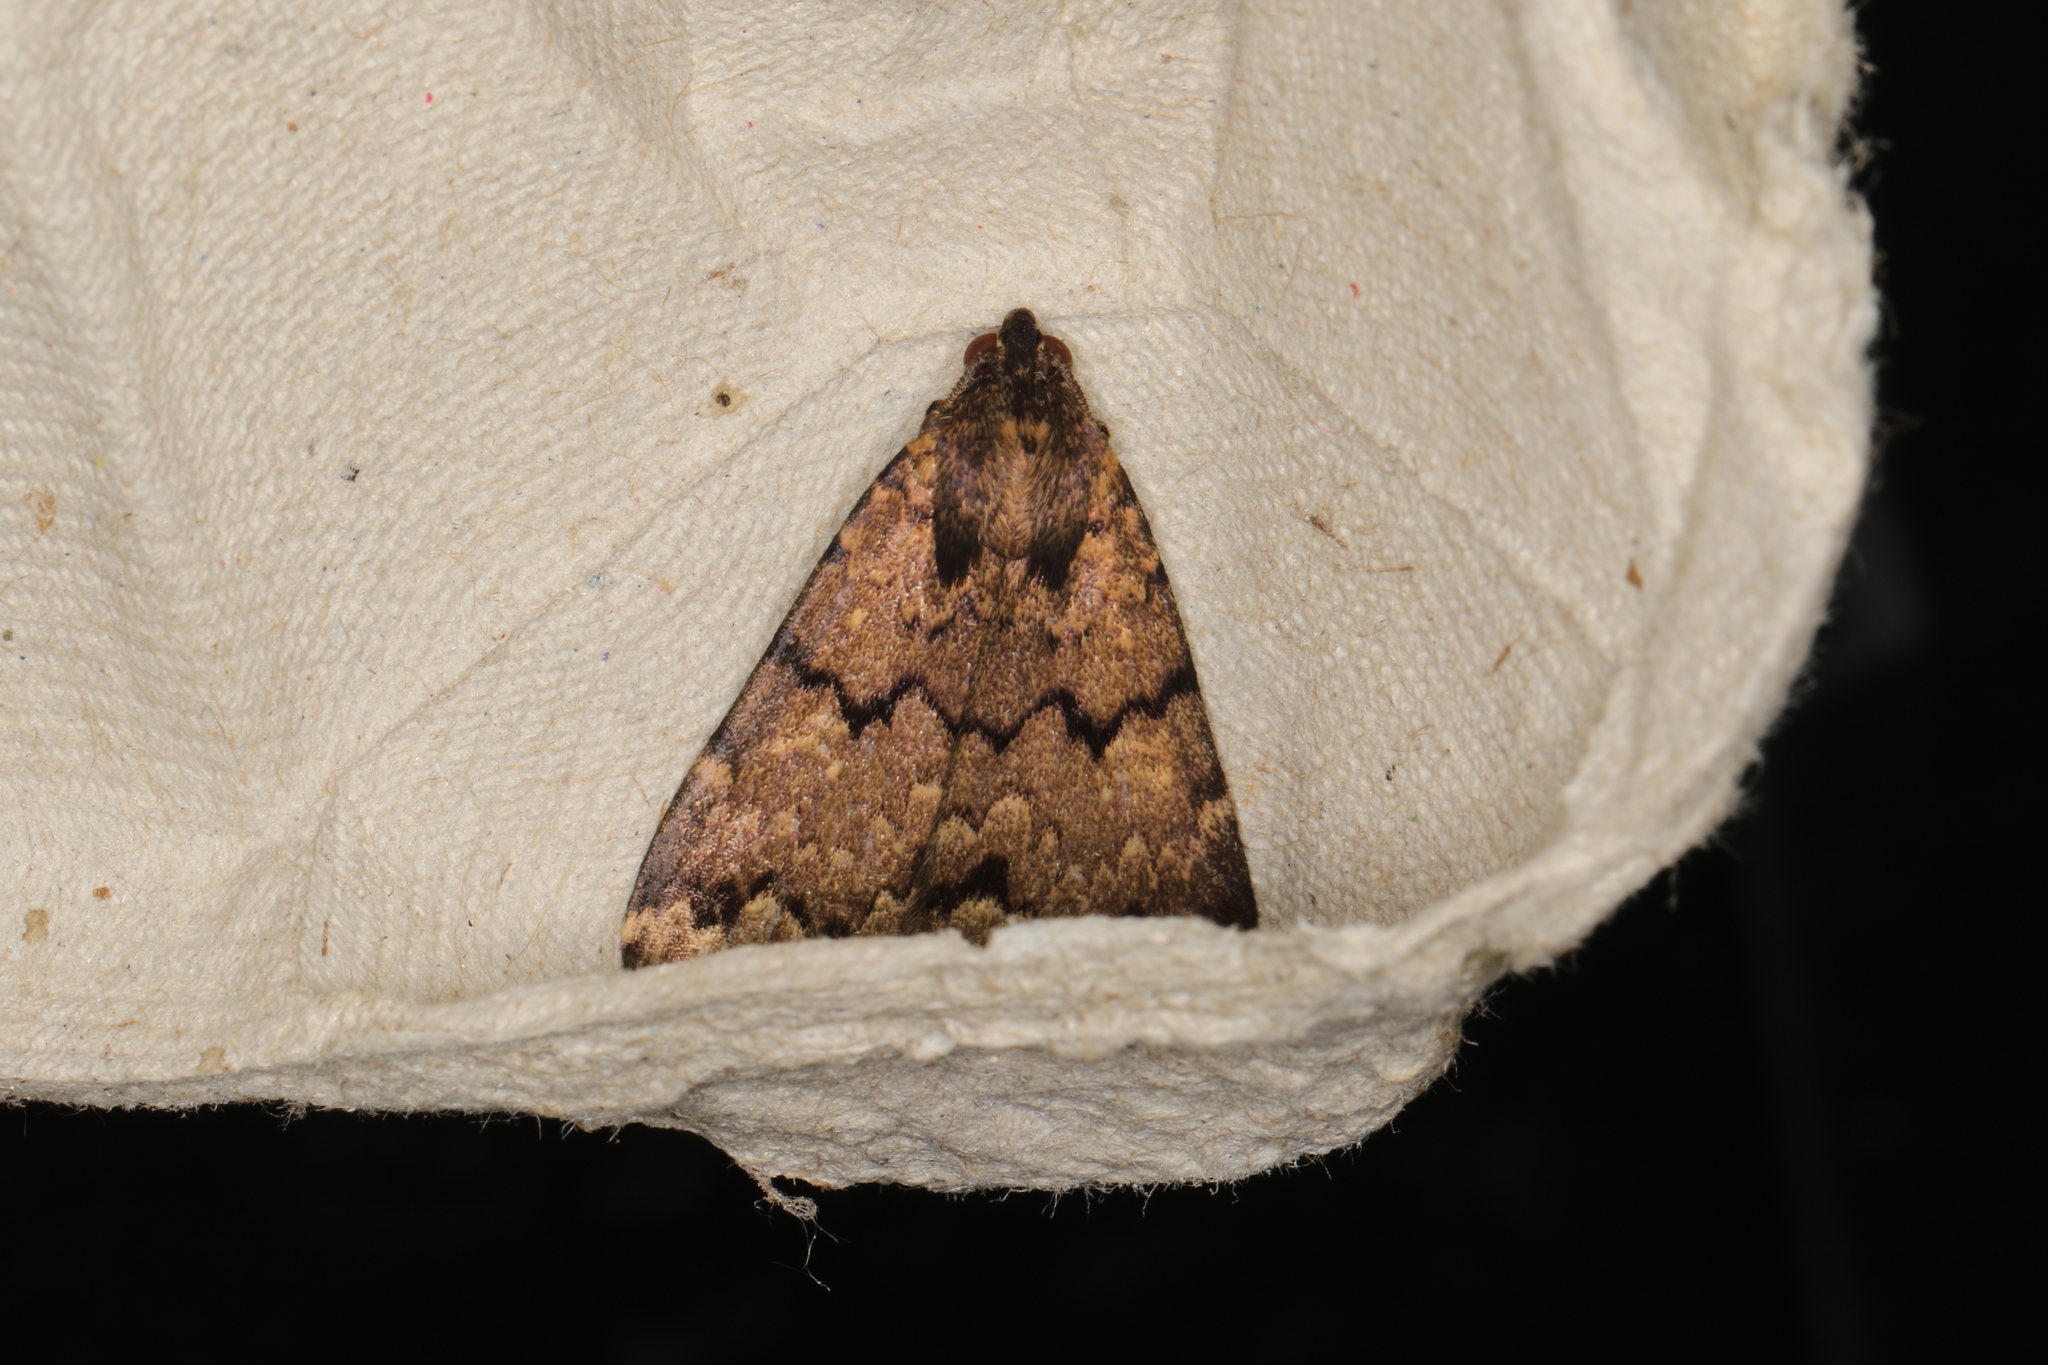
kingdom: Animalia
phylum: Arthropoda
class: Insecta
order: Lepidoptera
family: Erebidae
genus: Mormoscopa
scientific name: Mormoscopa phricozona
